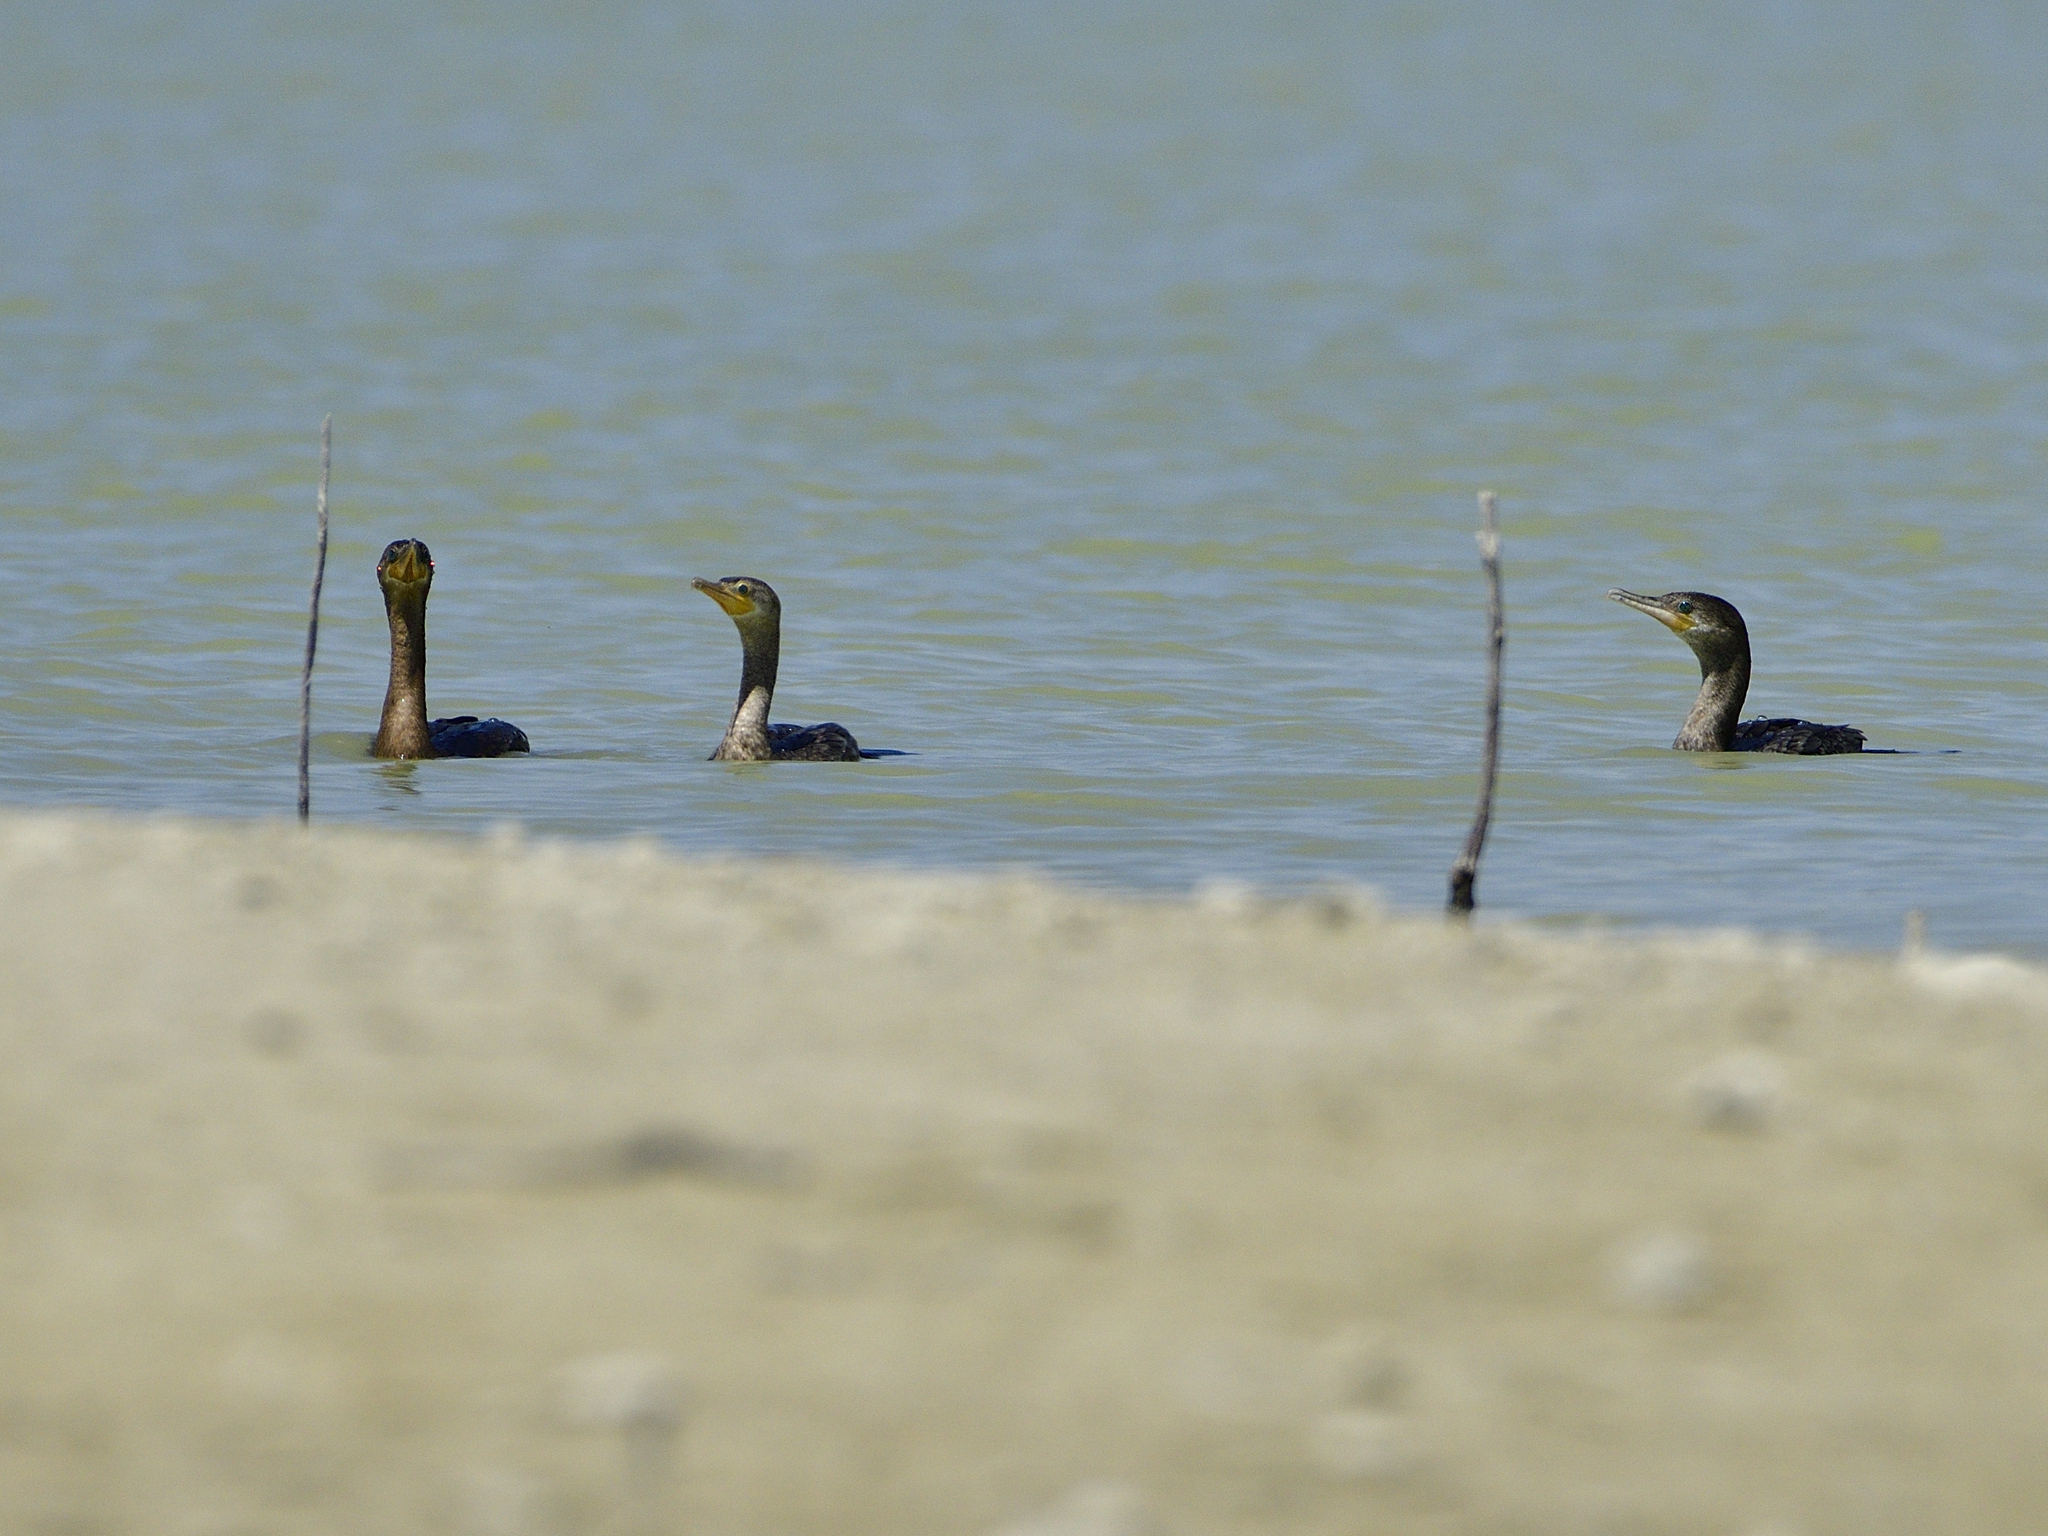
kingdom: Animalia
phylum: Chordata
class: Aves
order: Suliformes
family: Phalacrocoracidae
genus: Phalacrocorax
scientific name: Phalacrocorax brasilianus
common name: Neotropic cormorant
